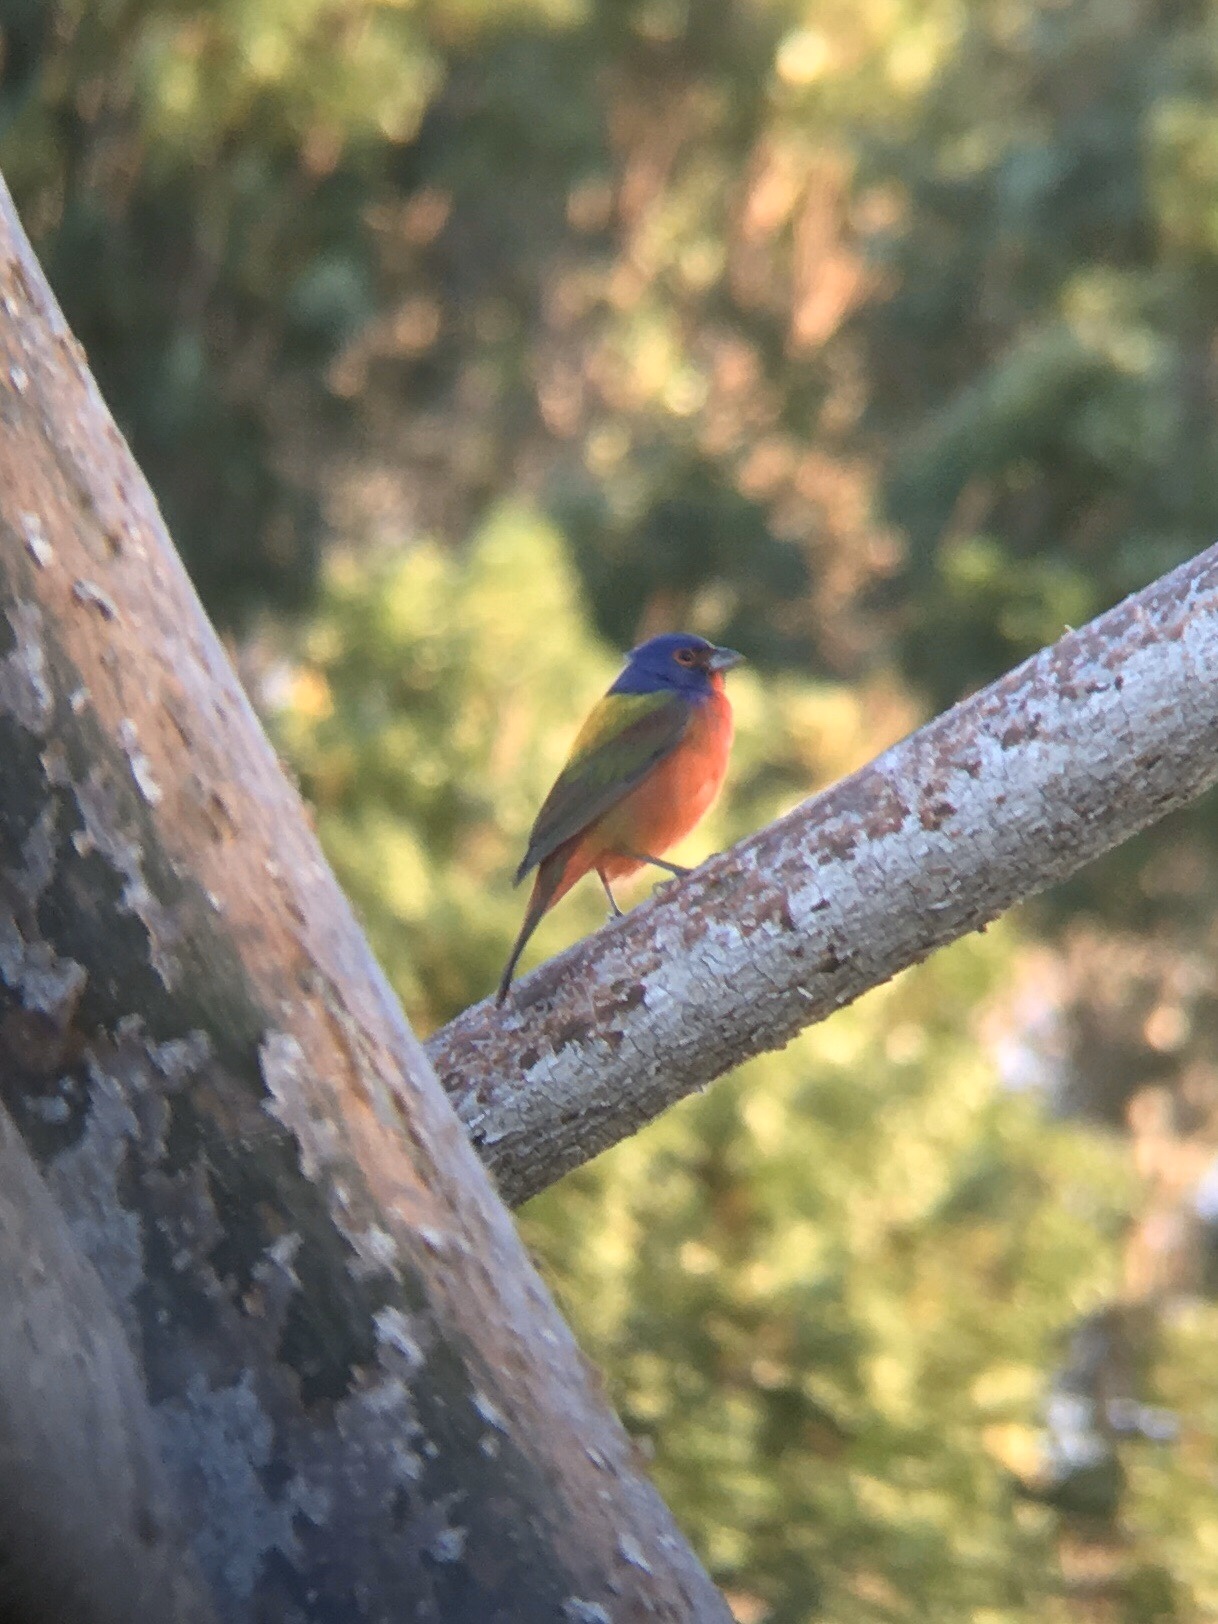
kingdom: Animalia
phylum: Chordata
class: Aves
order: Passeriformes
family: Cardinalidae
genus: Passerina
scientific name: Passerina ciris
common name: Painted bunting
